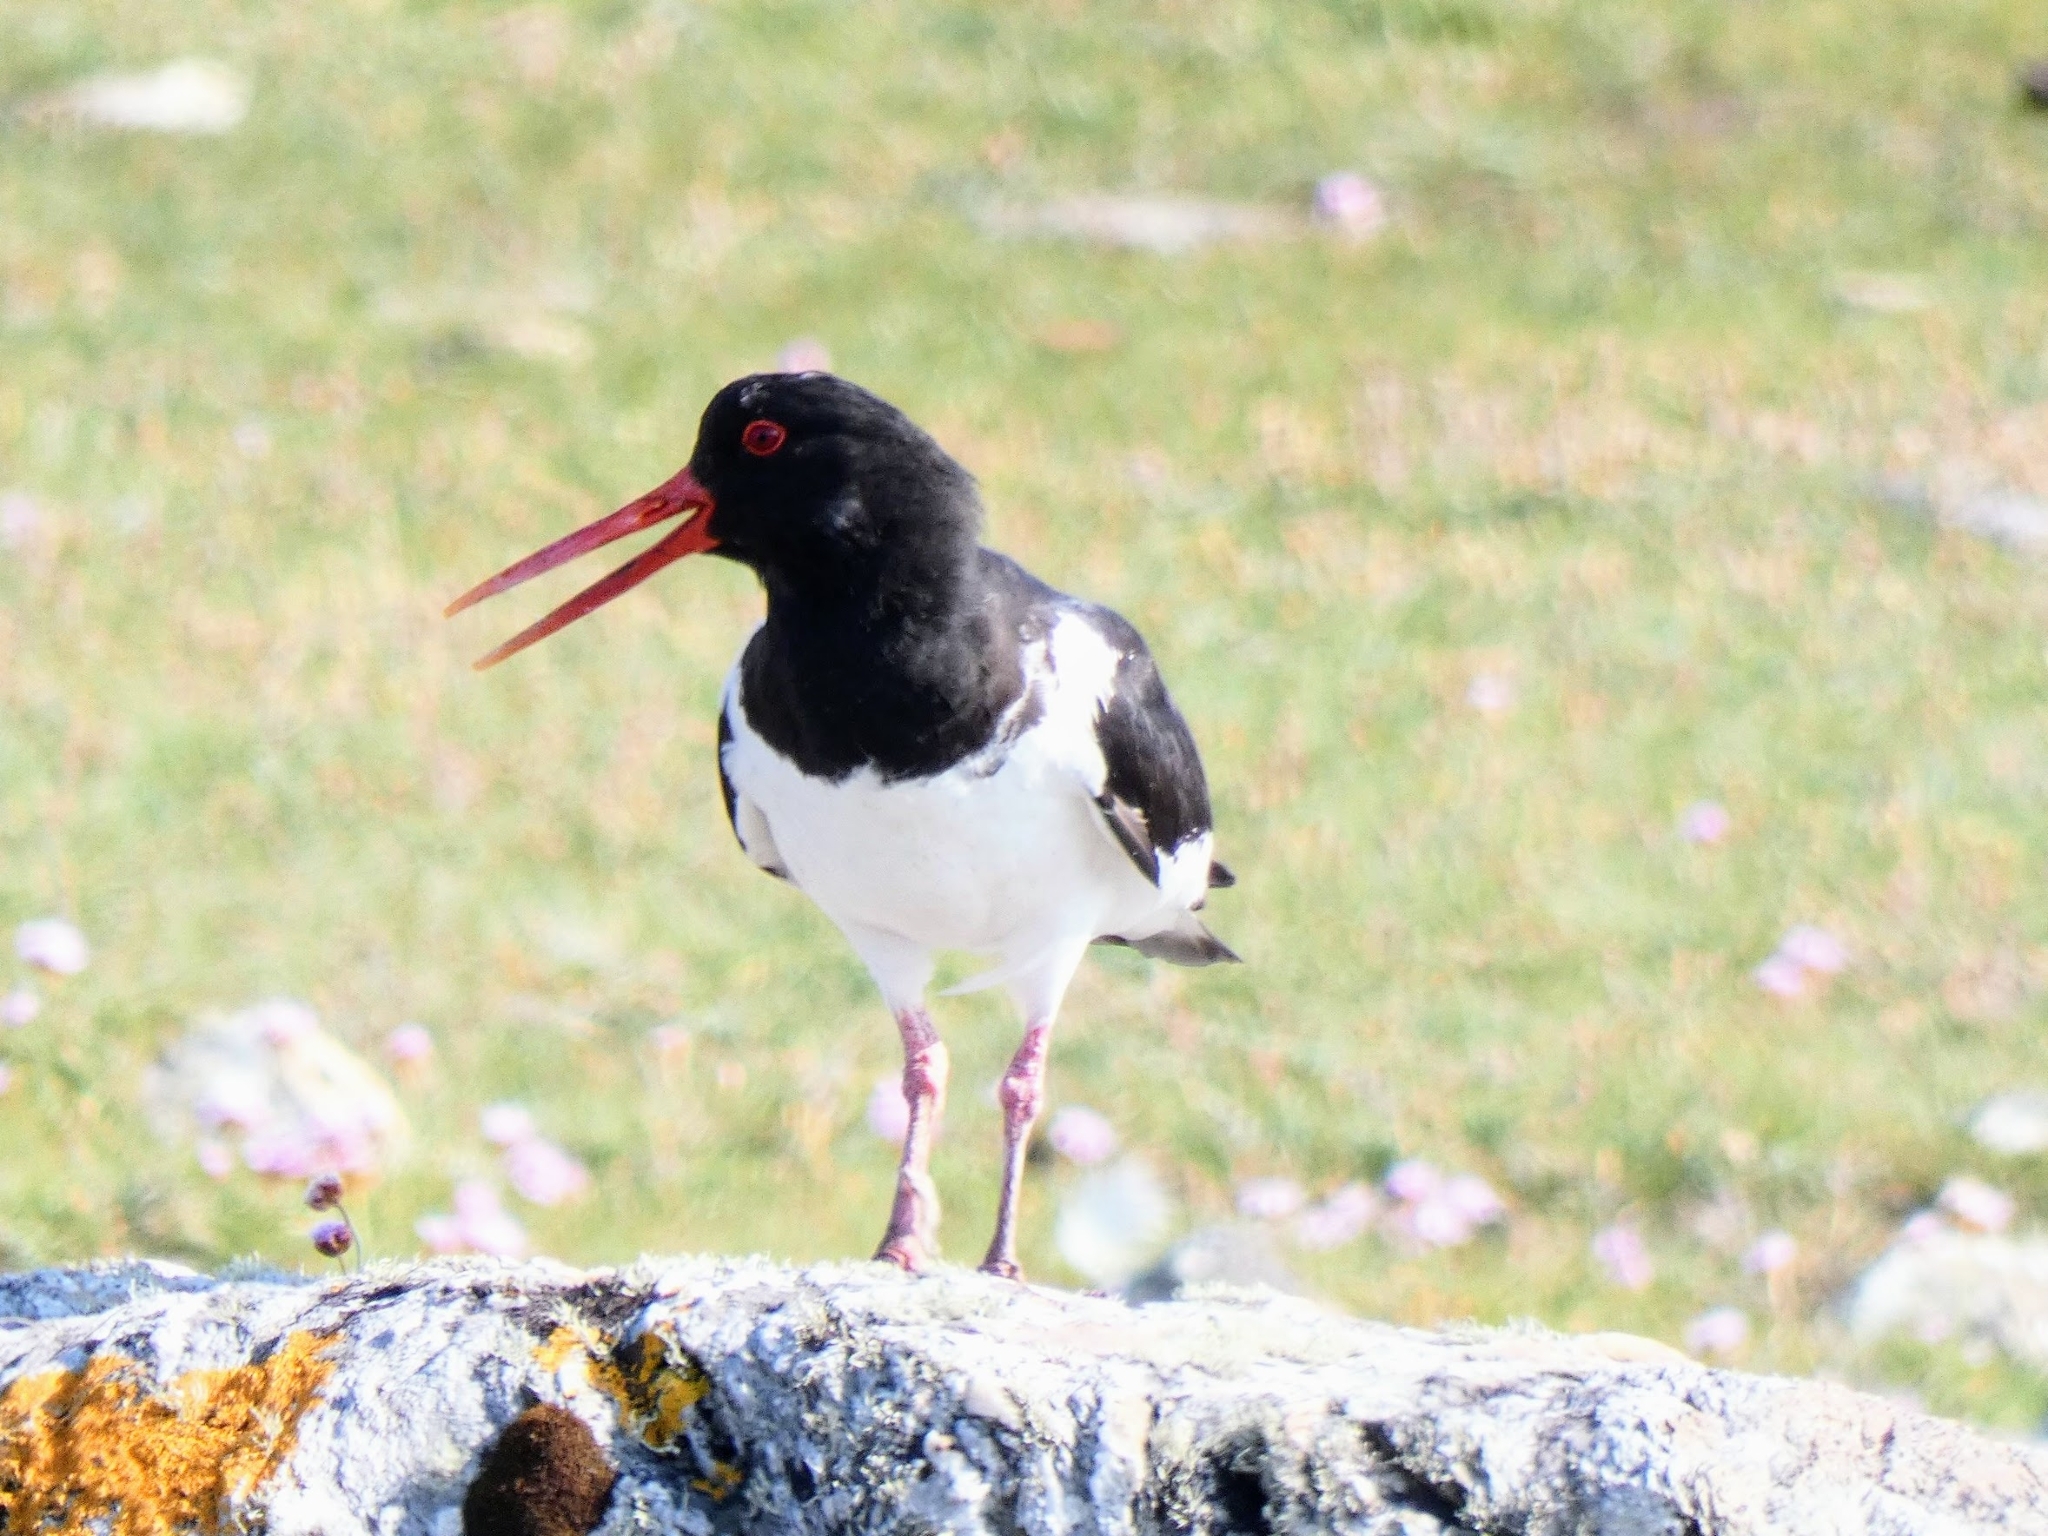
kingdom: Animalia
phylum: Chordata
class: Aves
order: Charadriiformes
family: Haematopodidae
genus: Haematopus
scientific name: Haematopus ostralegus
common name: Eurasian oystercatcher
